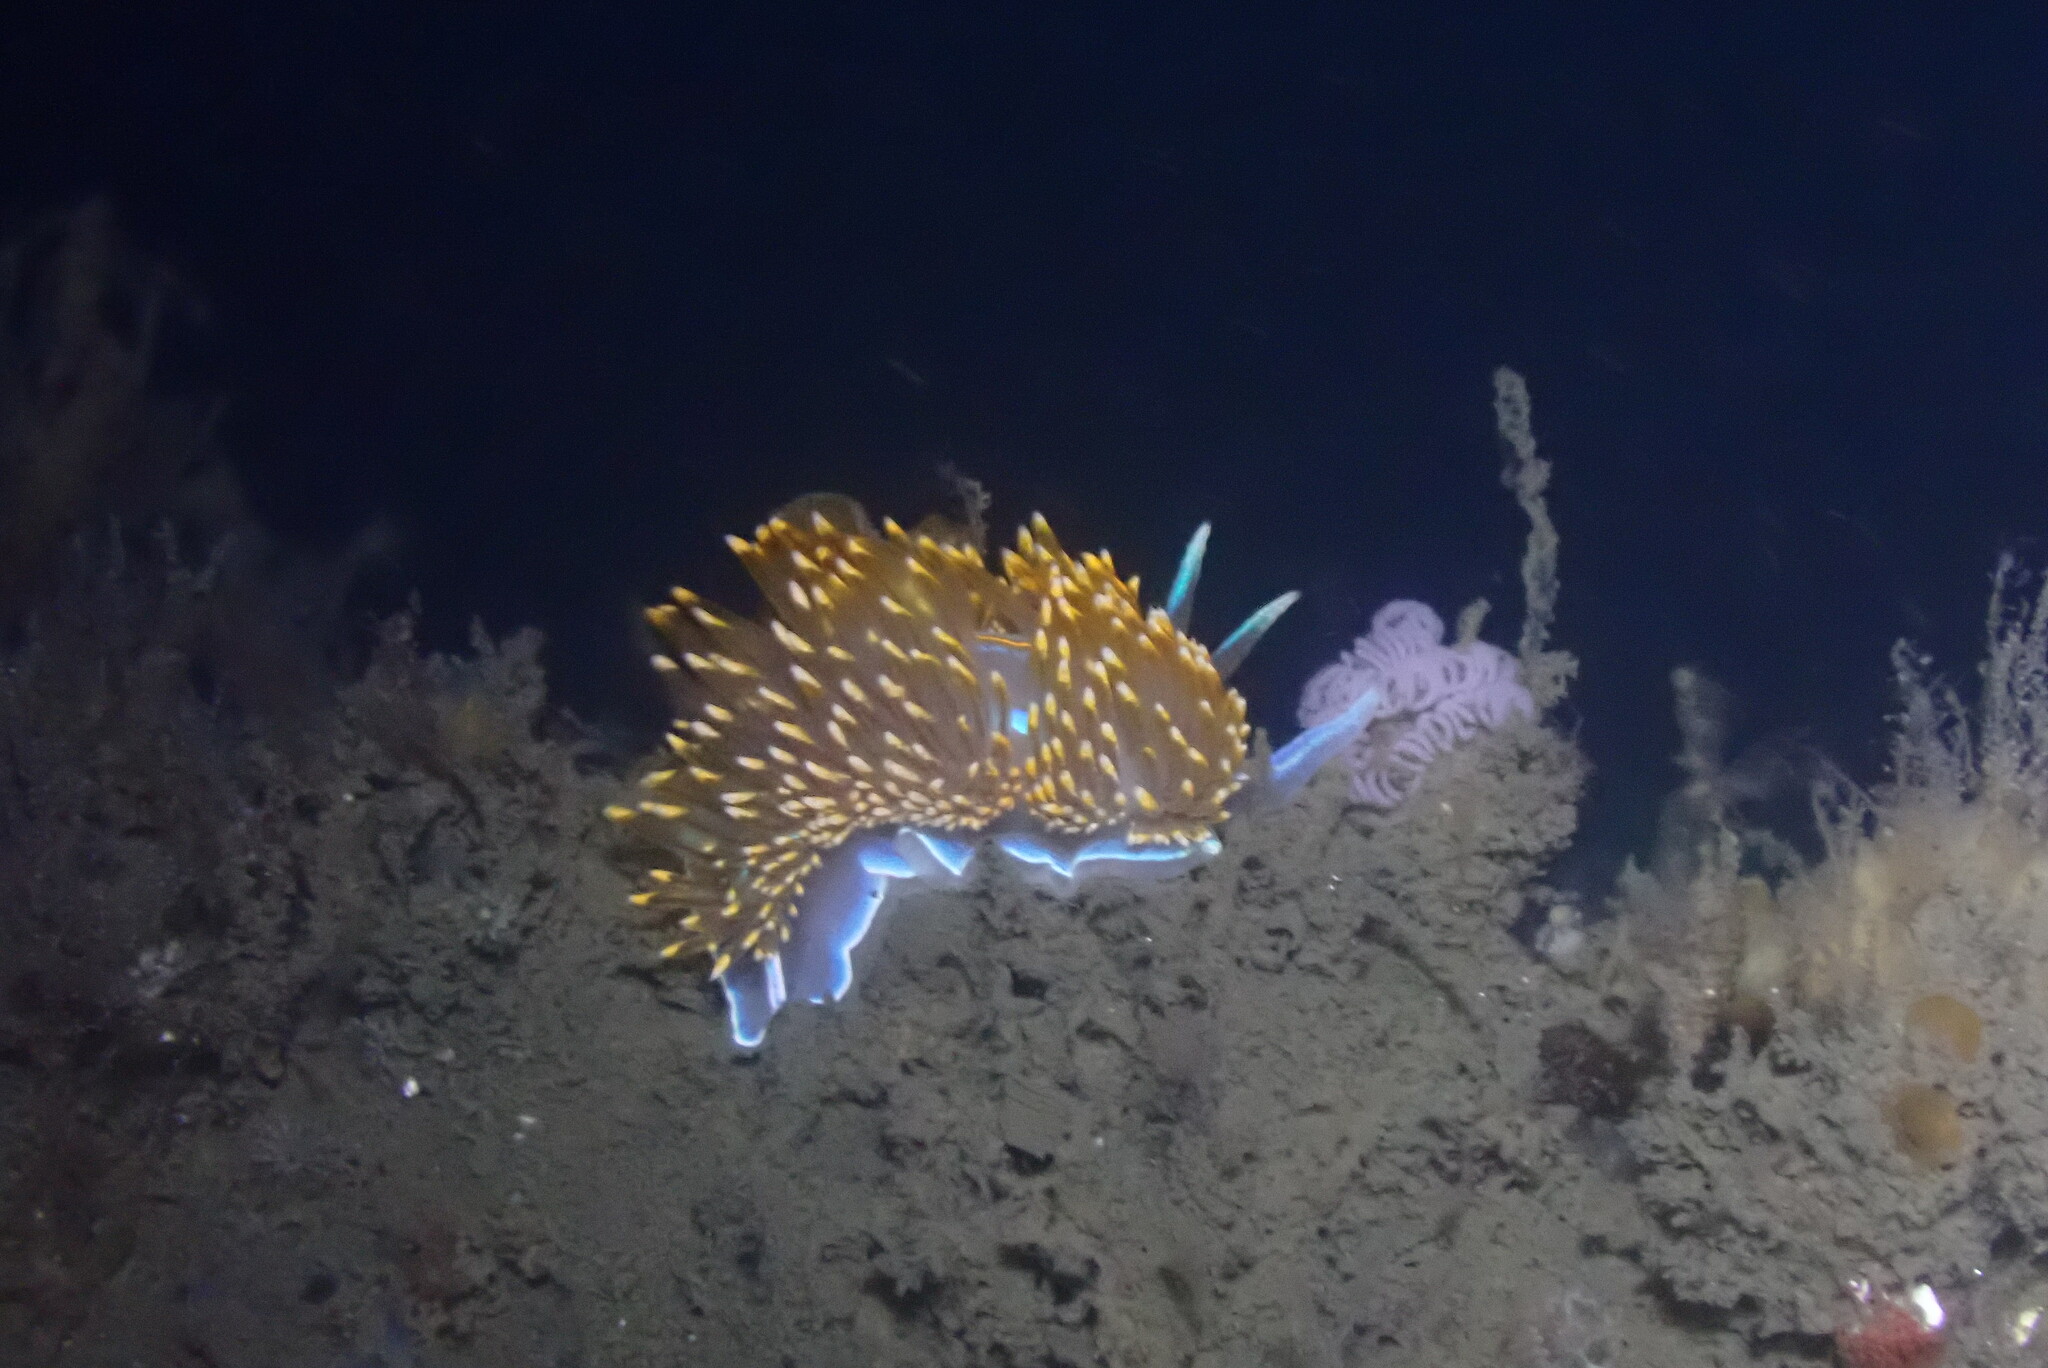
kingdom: Animalia
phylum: Mollusca
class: Gastropoda
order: Nudibranchia
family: Myrrhinidae
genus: Hermissenda
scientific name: Hermissenda opalescens
